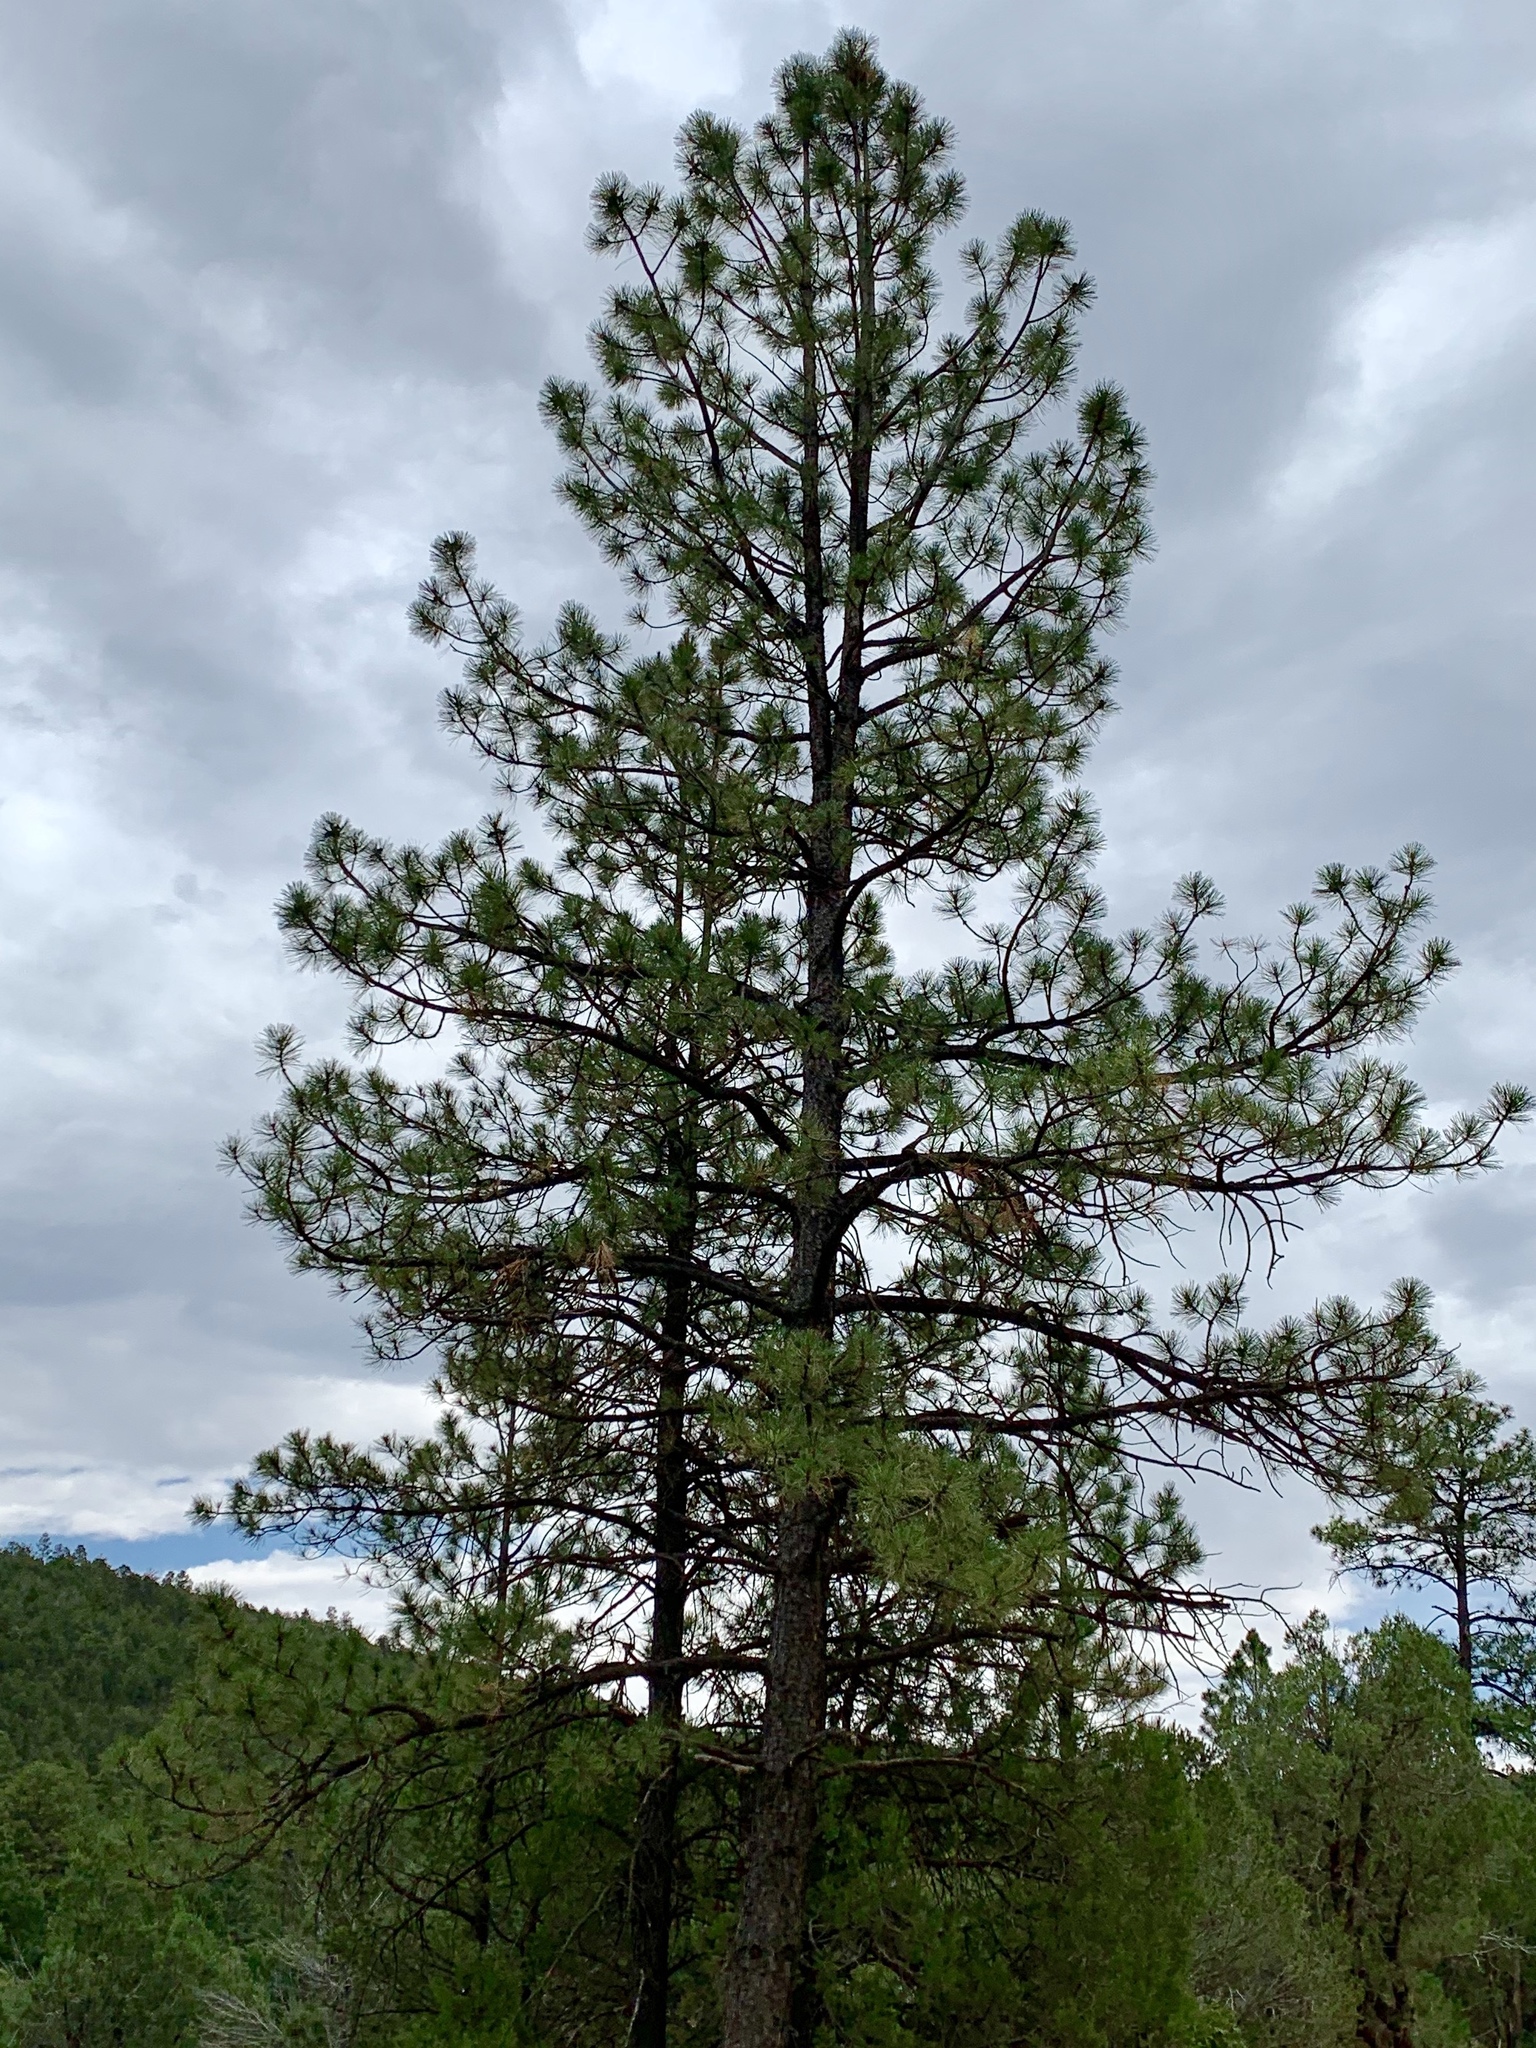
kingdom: Plantae
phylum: Tracheophyta
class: Pinopsida
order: Pinales
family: Pinaceae
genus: Pinus
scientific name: Pinus ponderosa
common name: Western yellow-pine
